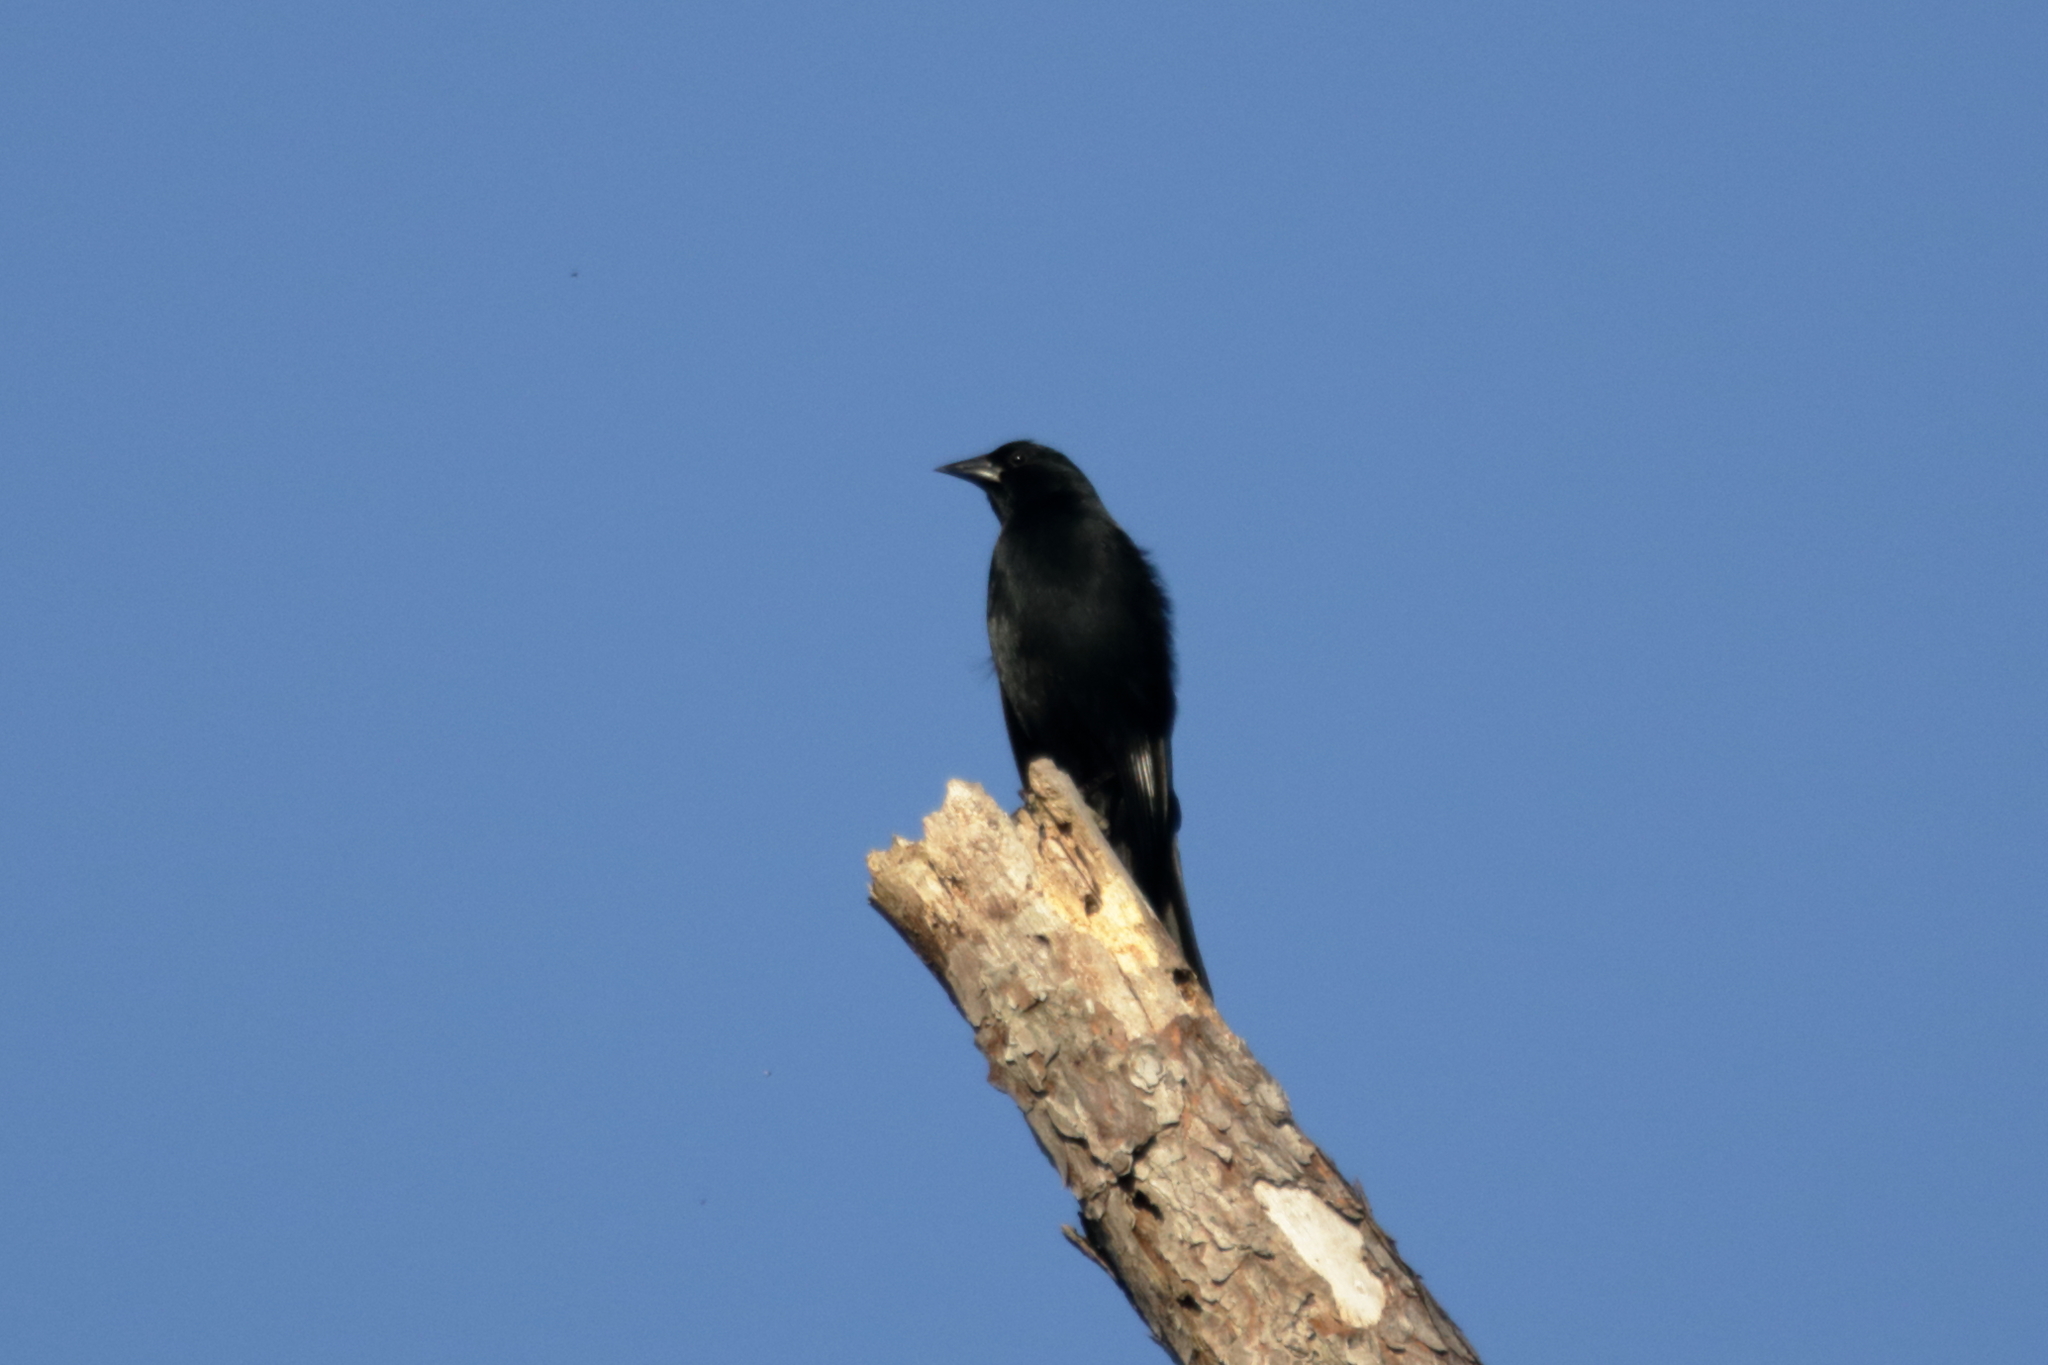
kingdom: Animalia
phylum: Chordata
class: Aves
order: Passeriformes
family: Icteridae
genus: Agelaius
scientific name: Agelaius phoeniceus
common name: Red-winged blackbird
